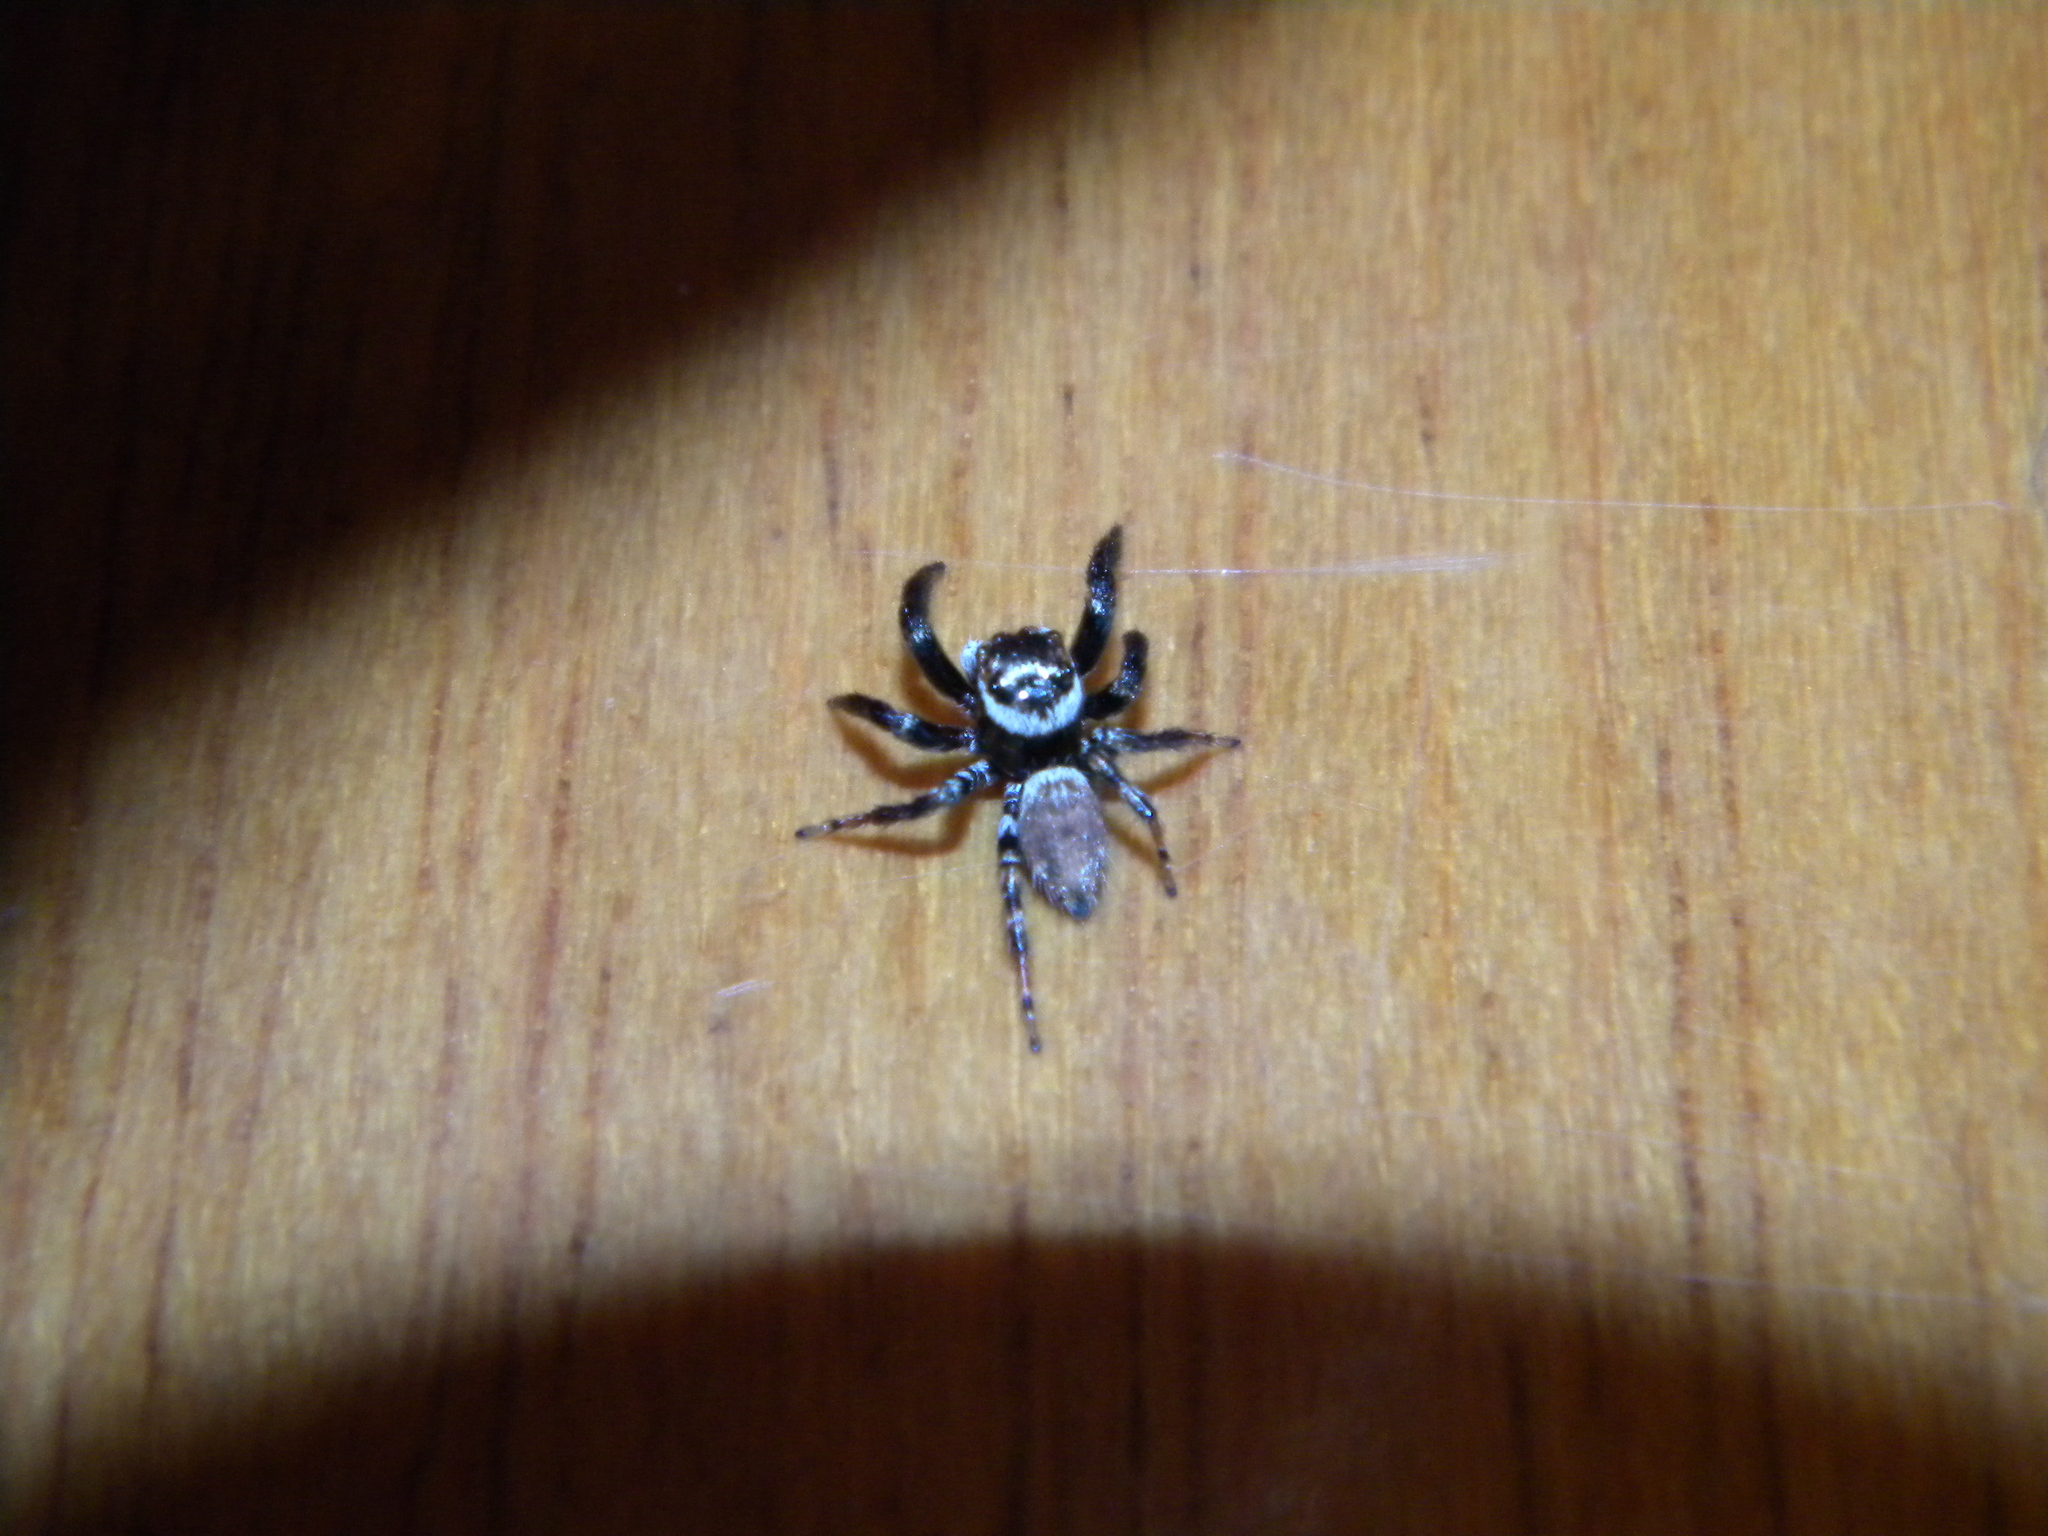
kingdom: Animalia
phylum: Arthropoda
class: Arachnida
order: Araneae
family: Salticidae
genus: Evarcha
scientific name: Evarcha jucunda
